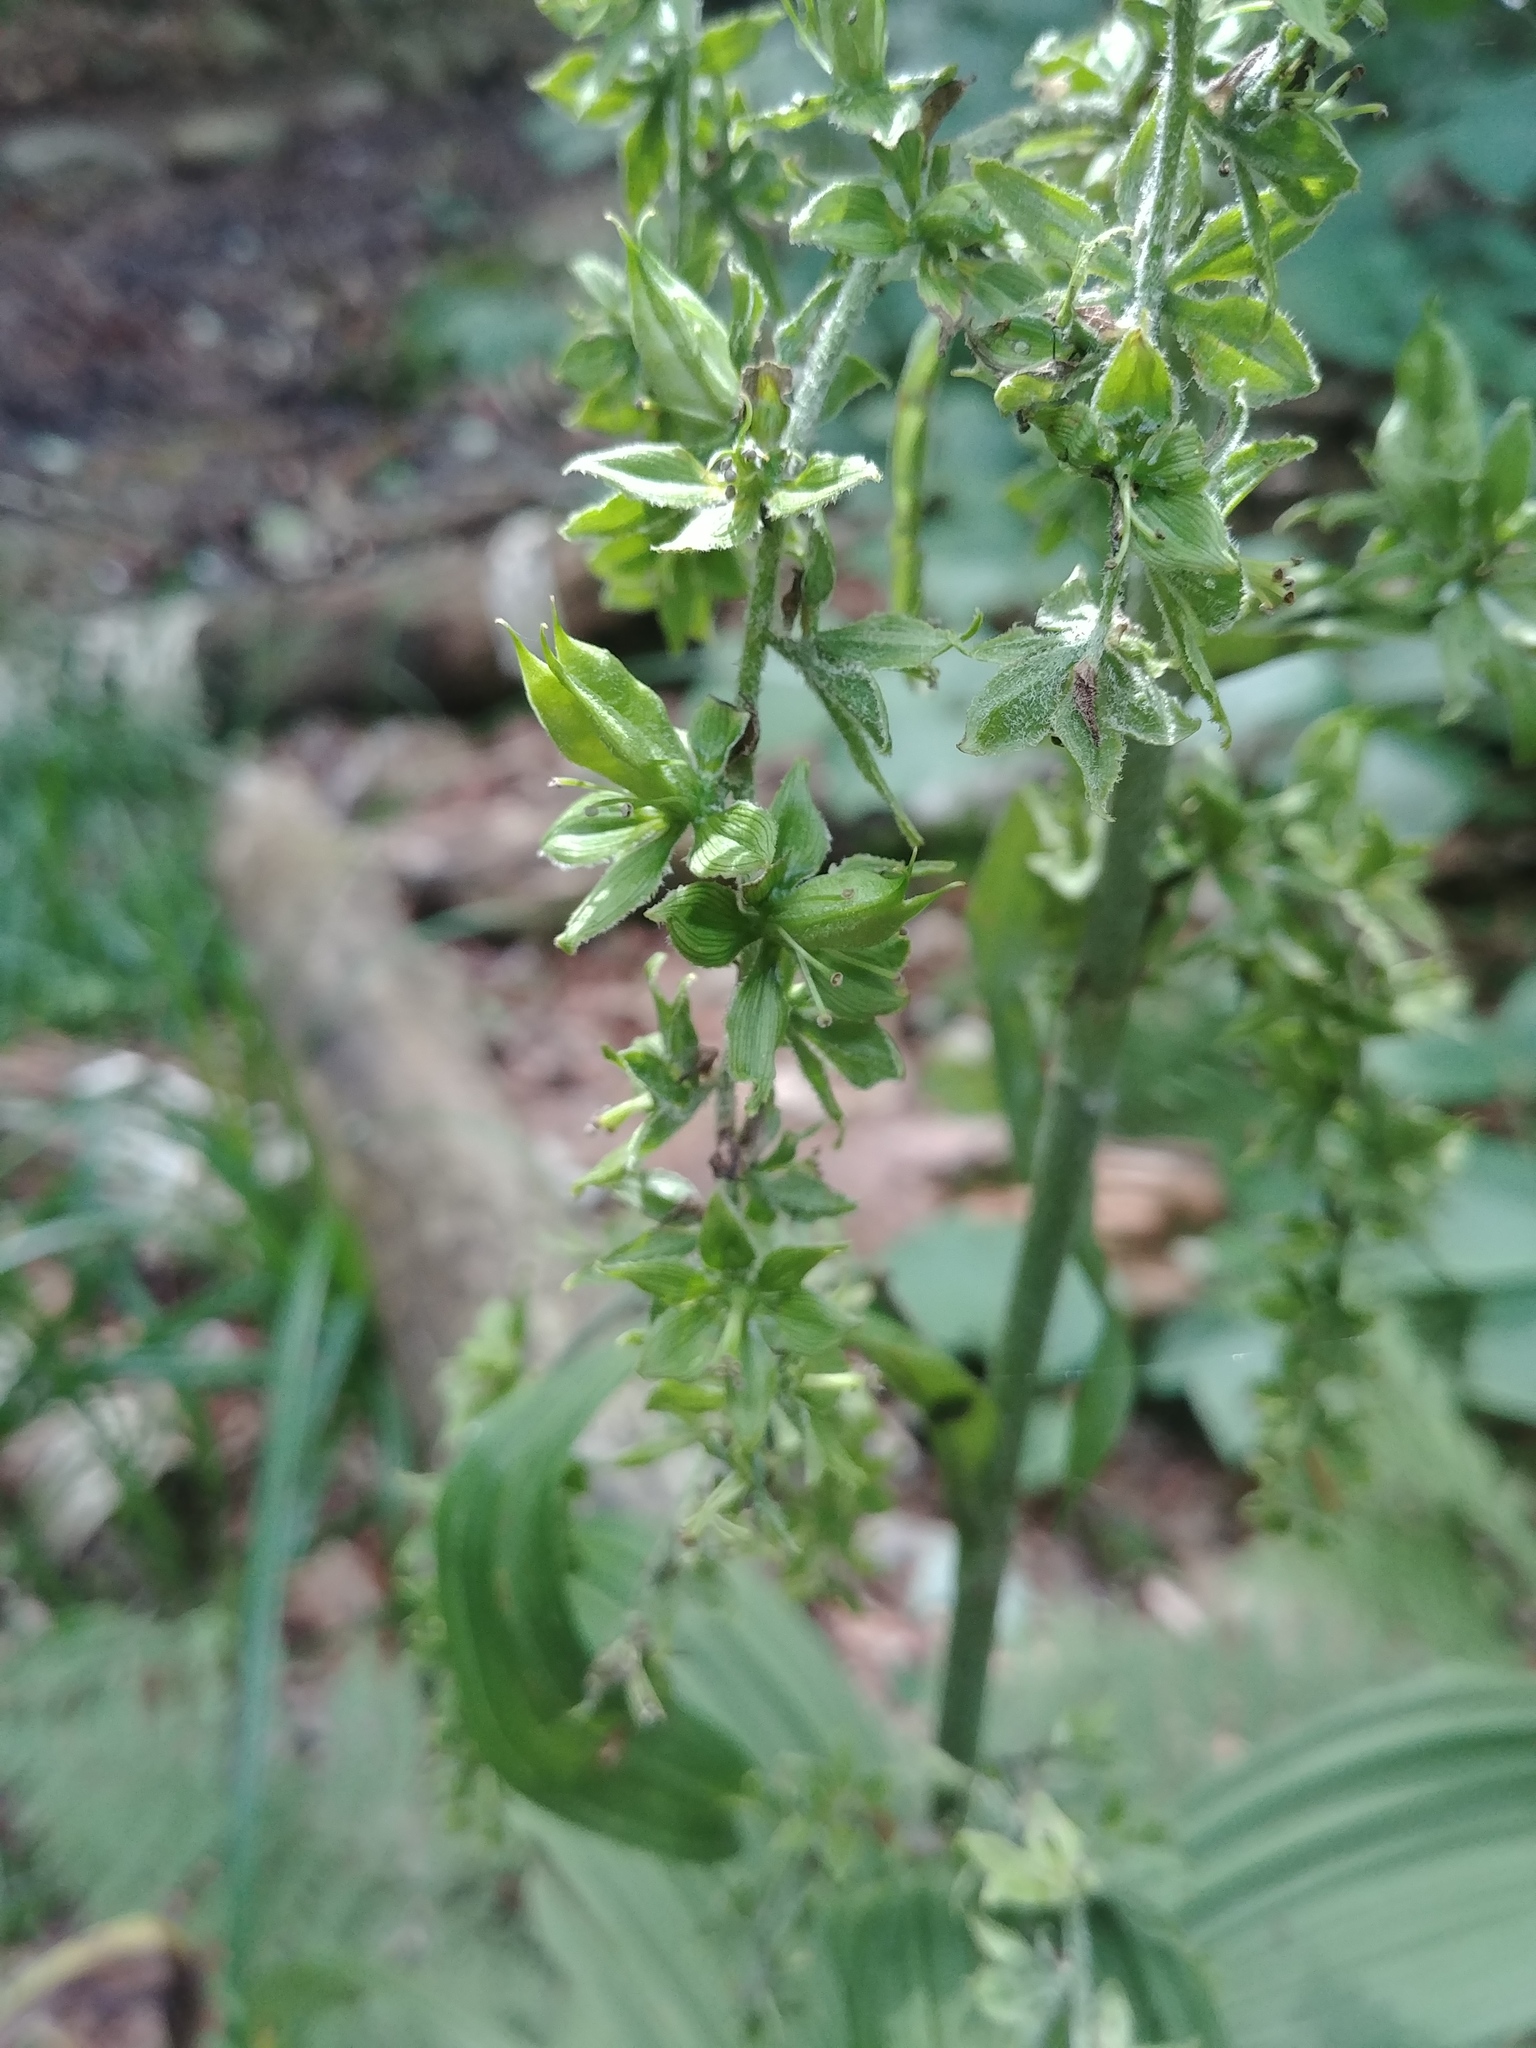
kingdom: Plantae
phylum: Tracheophyta
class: Liliopsida
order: Liliales
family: Melanthiaceae
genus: Veratrum
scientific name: Veratrum viride
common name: American false hellebore
